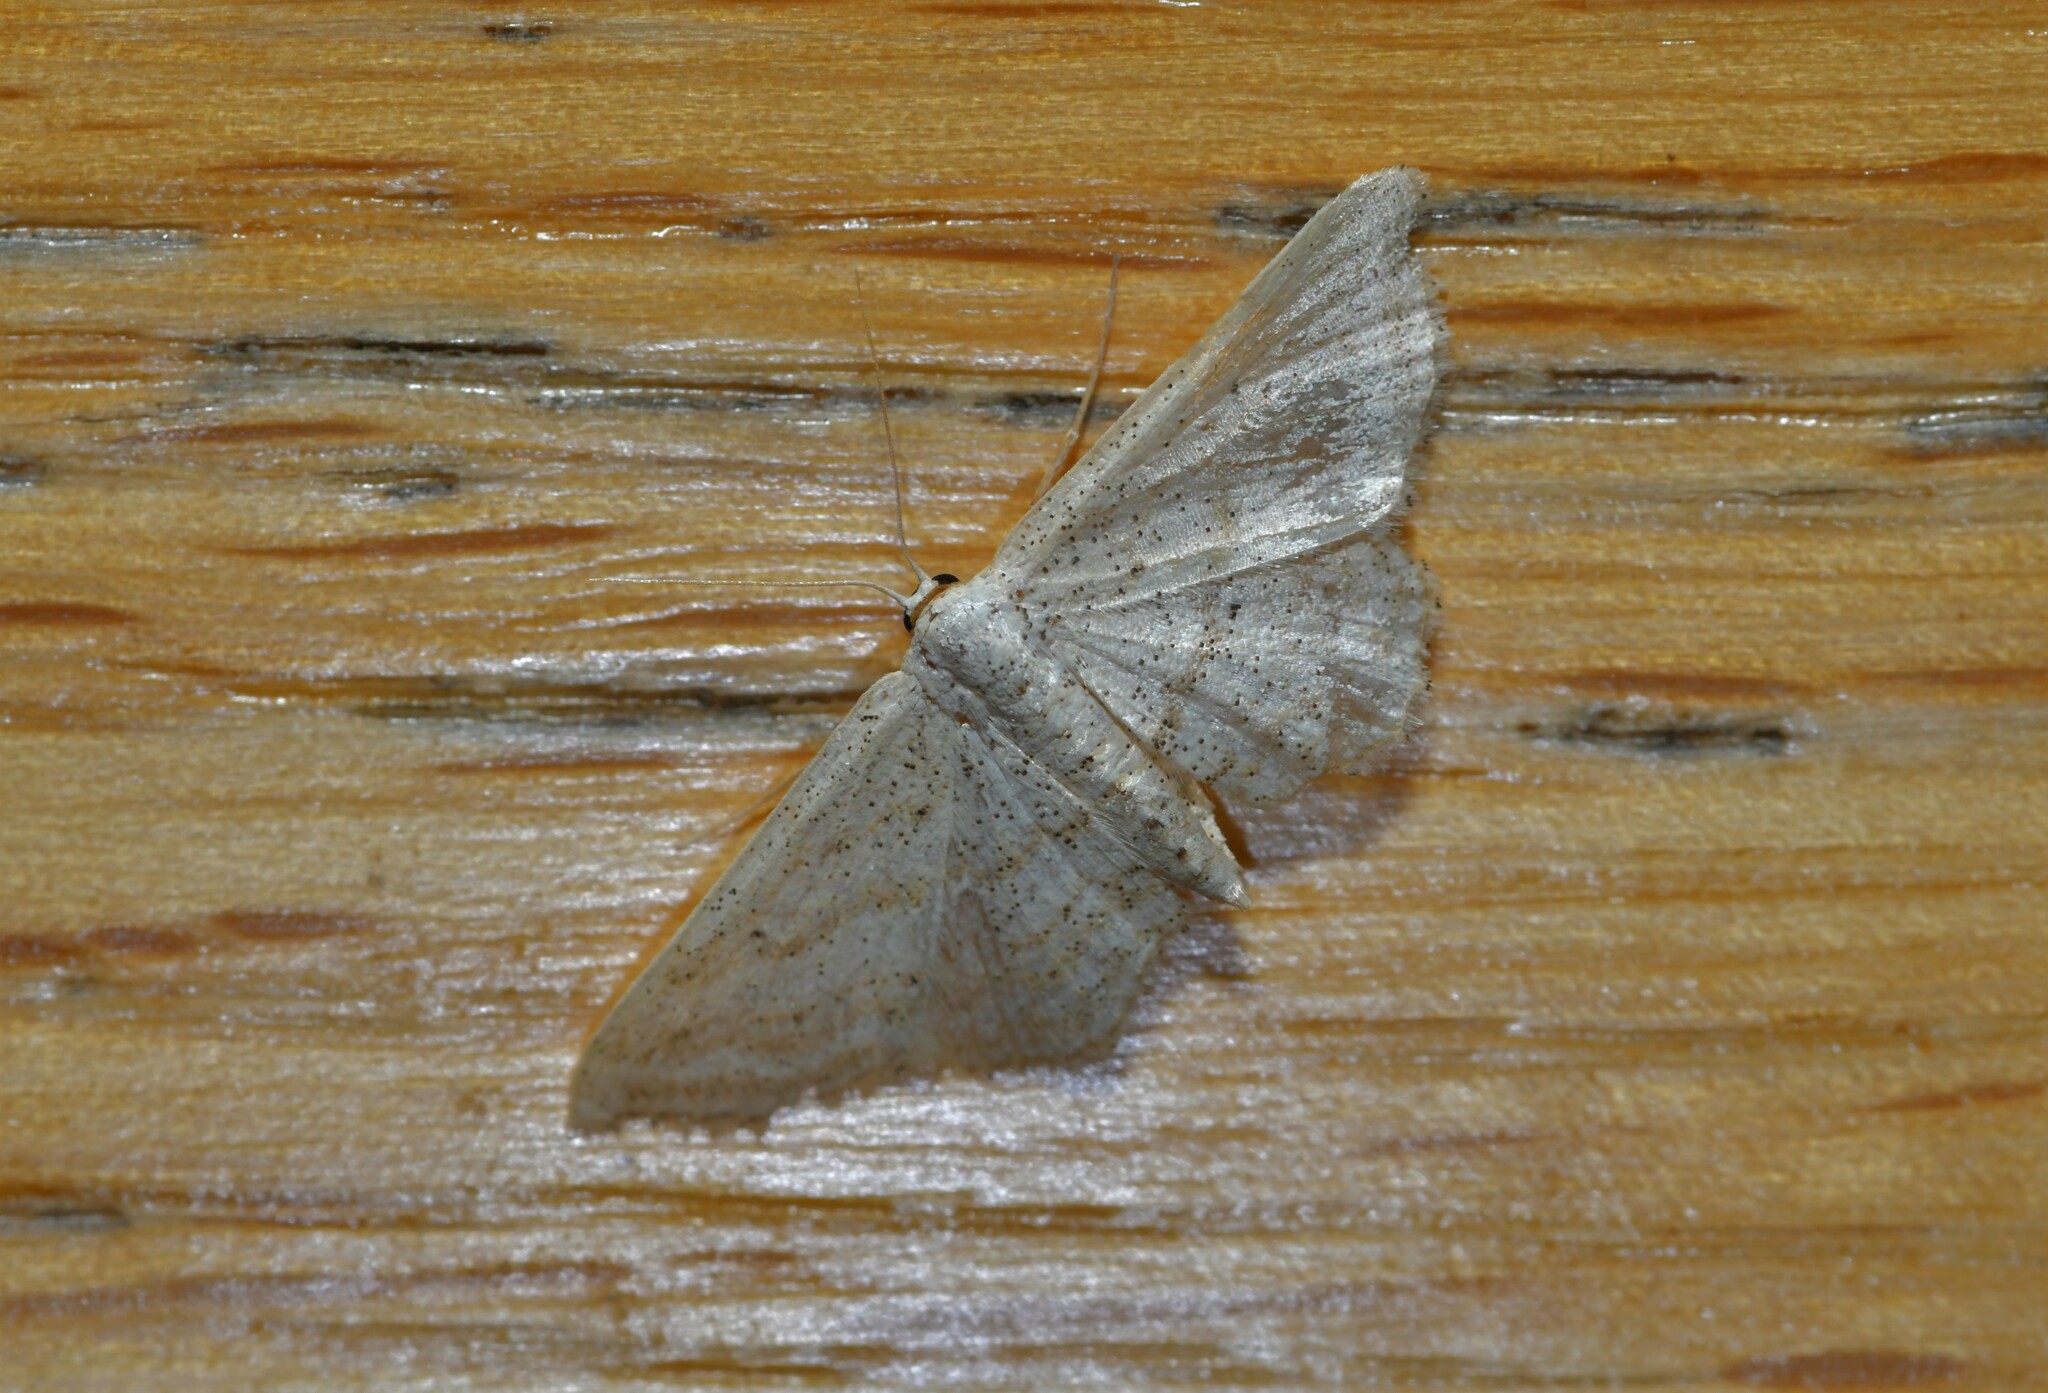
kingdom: Animalia
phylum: Arthropoda
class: Insecta
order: Lepidoptera
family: Geometridae
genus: Idaea
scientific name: Idaea elongaria
